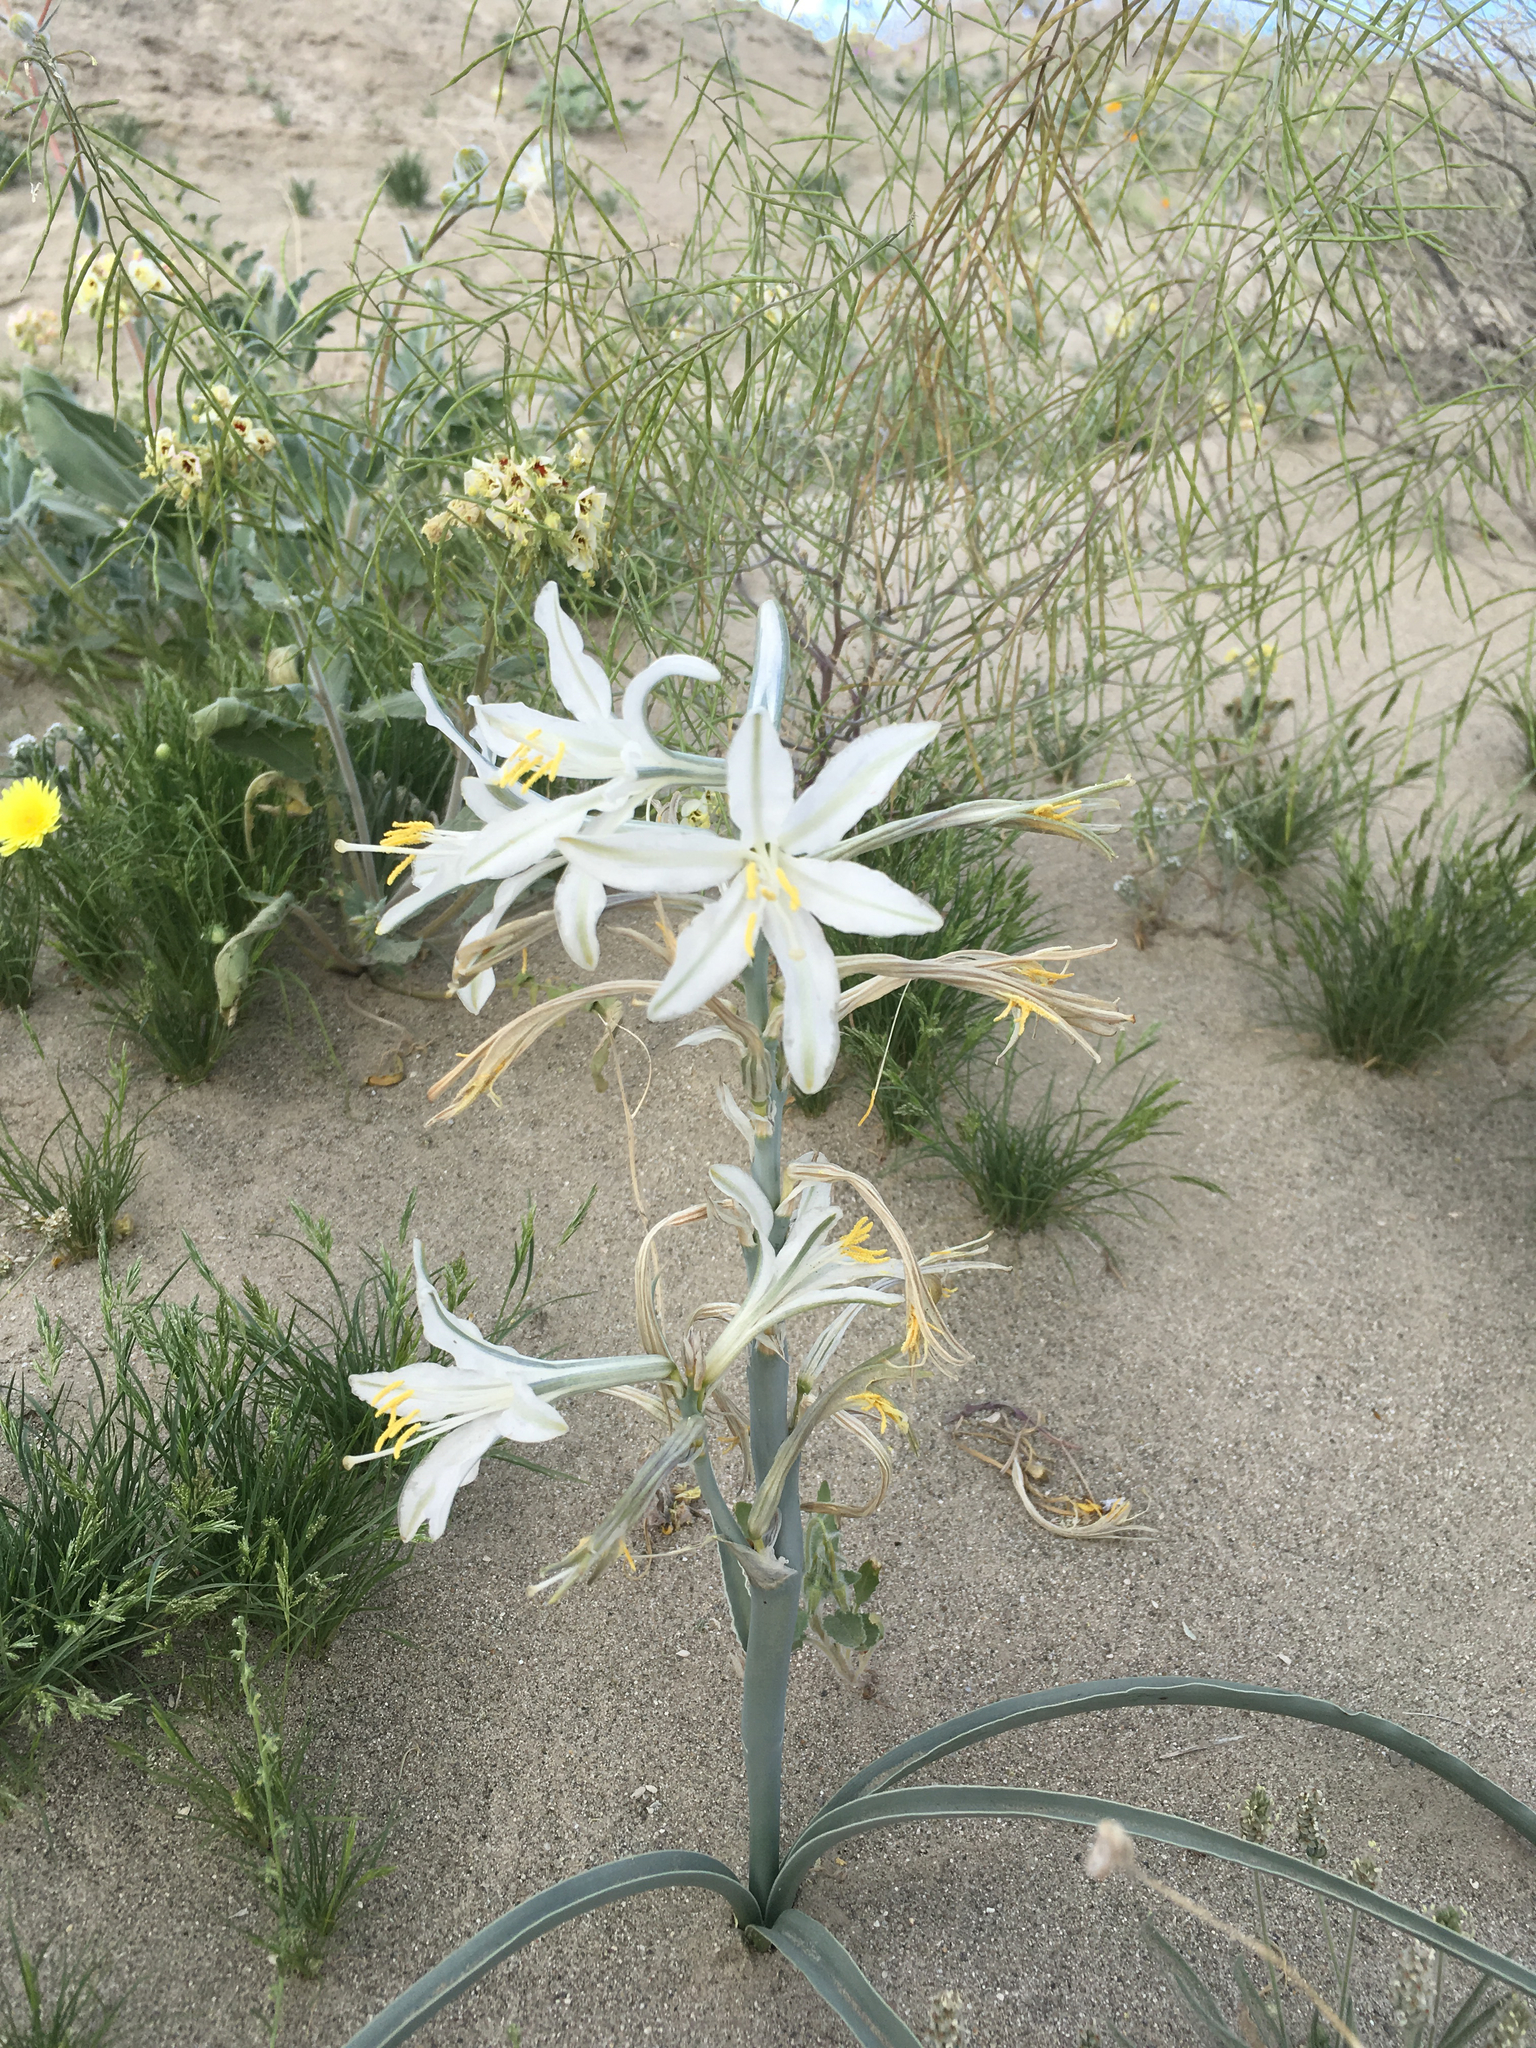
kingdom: Plantae
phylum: Tracheophyta
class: Liliopsida
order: Asparagales
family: Asparagaceae
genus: Hesperocallis
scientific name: Hesperocallis undulata
